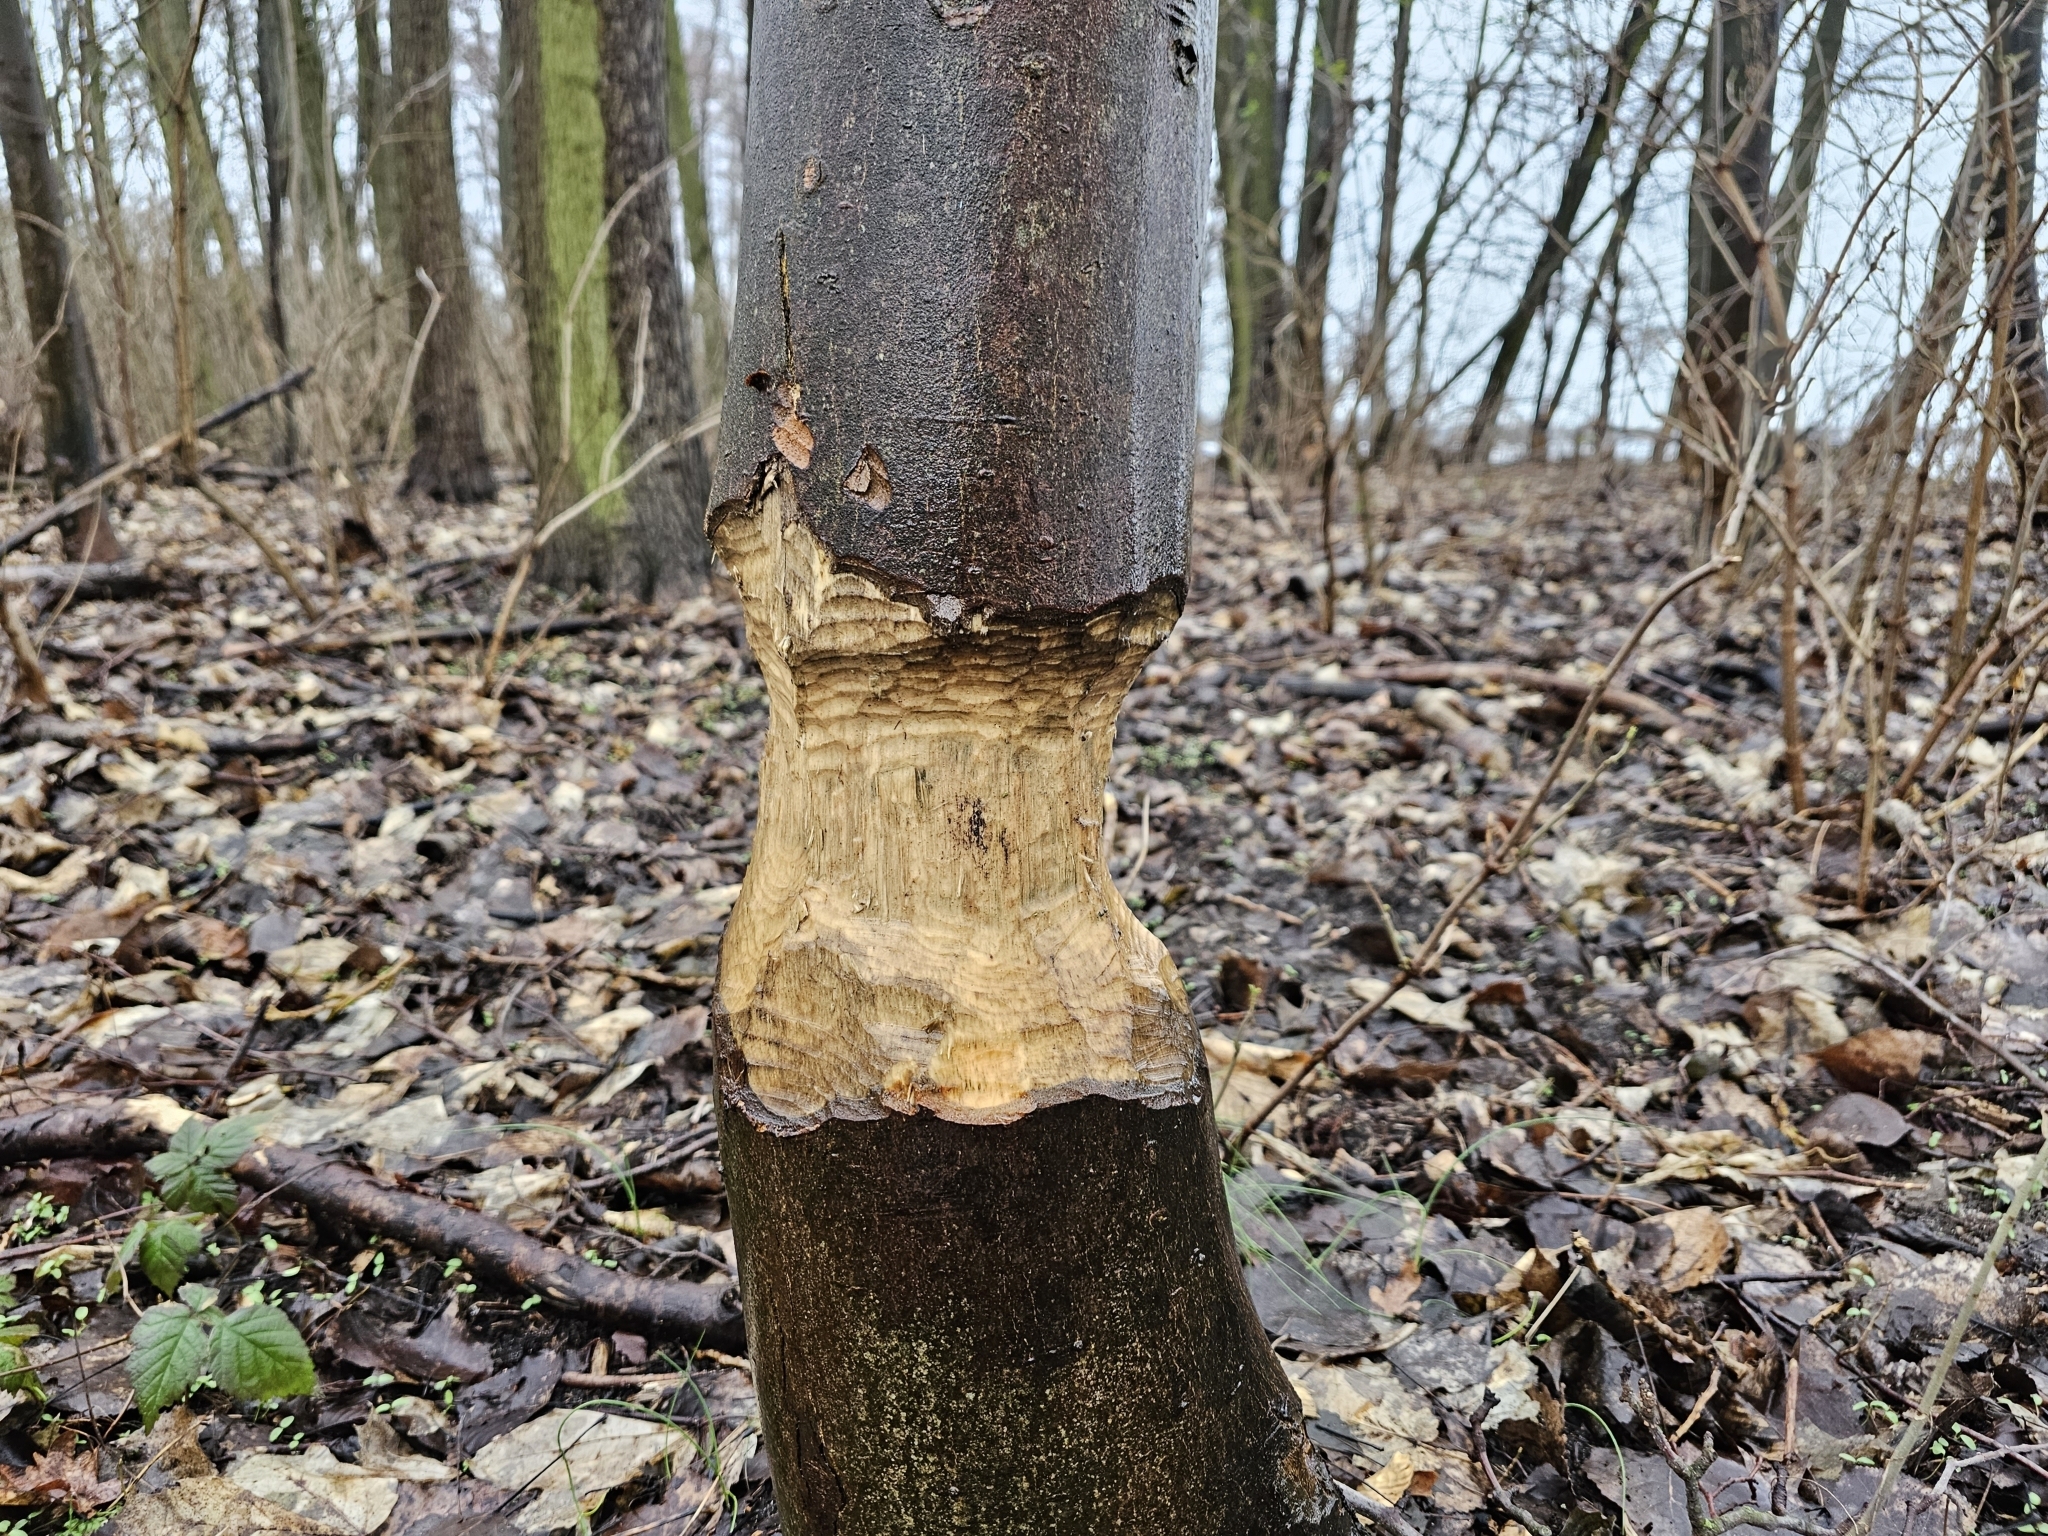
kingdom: Animalia
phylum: Chordata
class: Mammalia
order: Rodentia
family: Castoridae
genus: Castor
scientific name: Castor fiber
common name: Eurasian beaver
